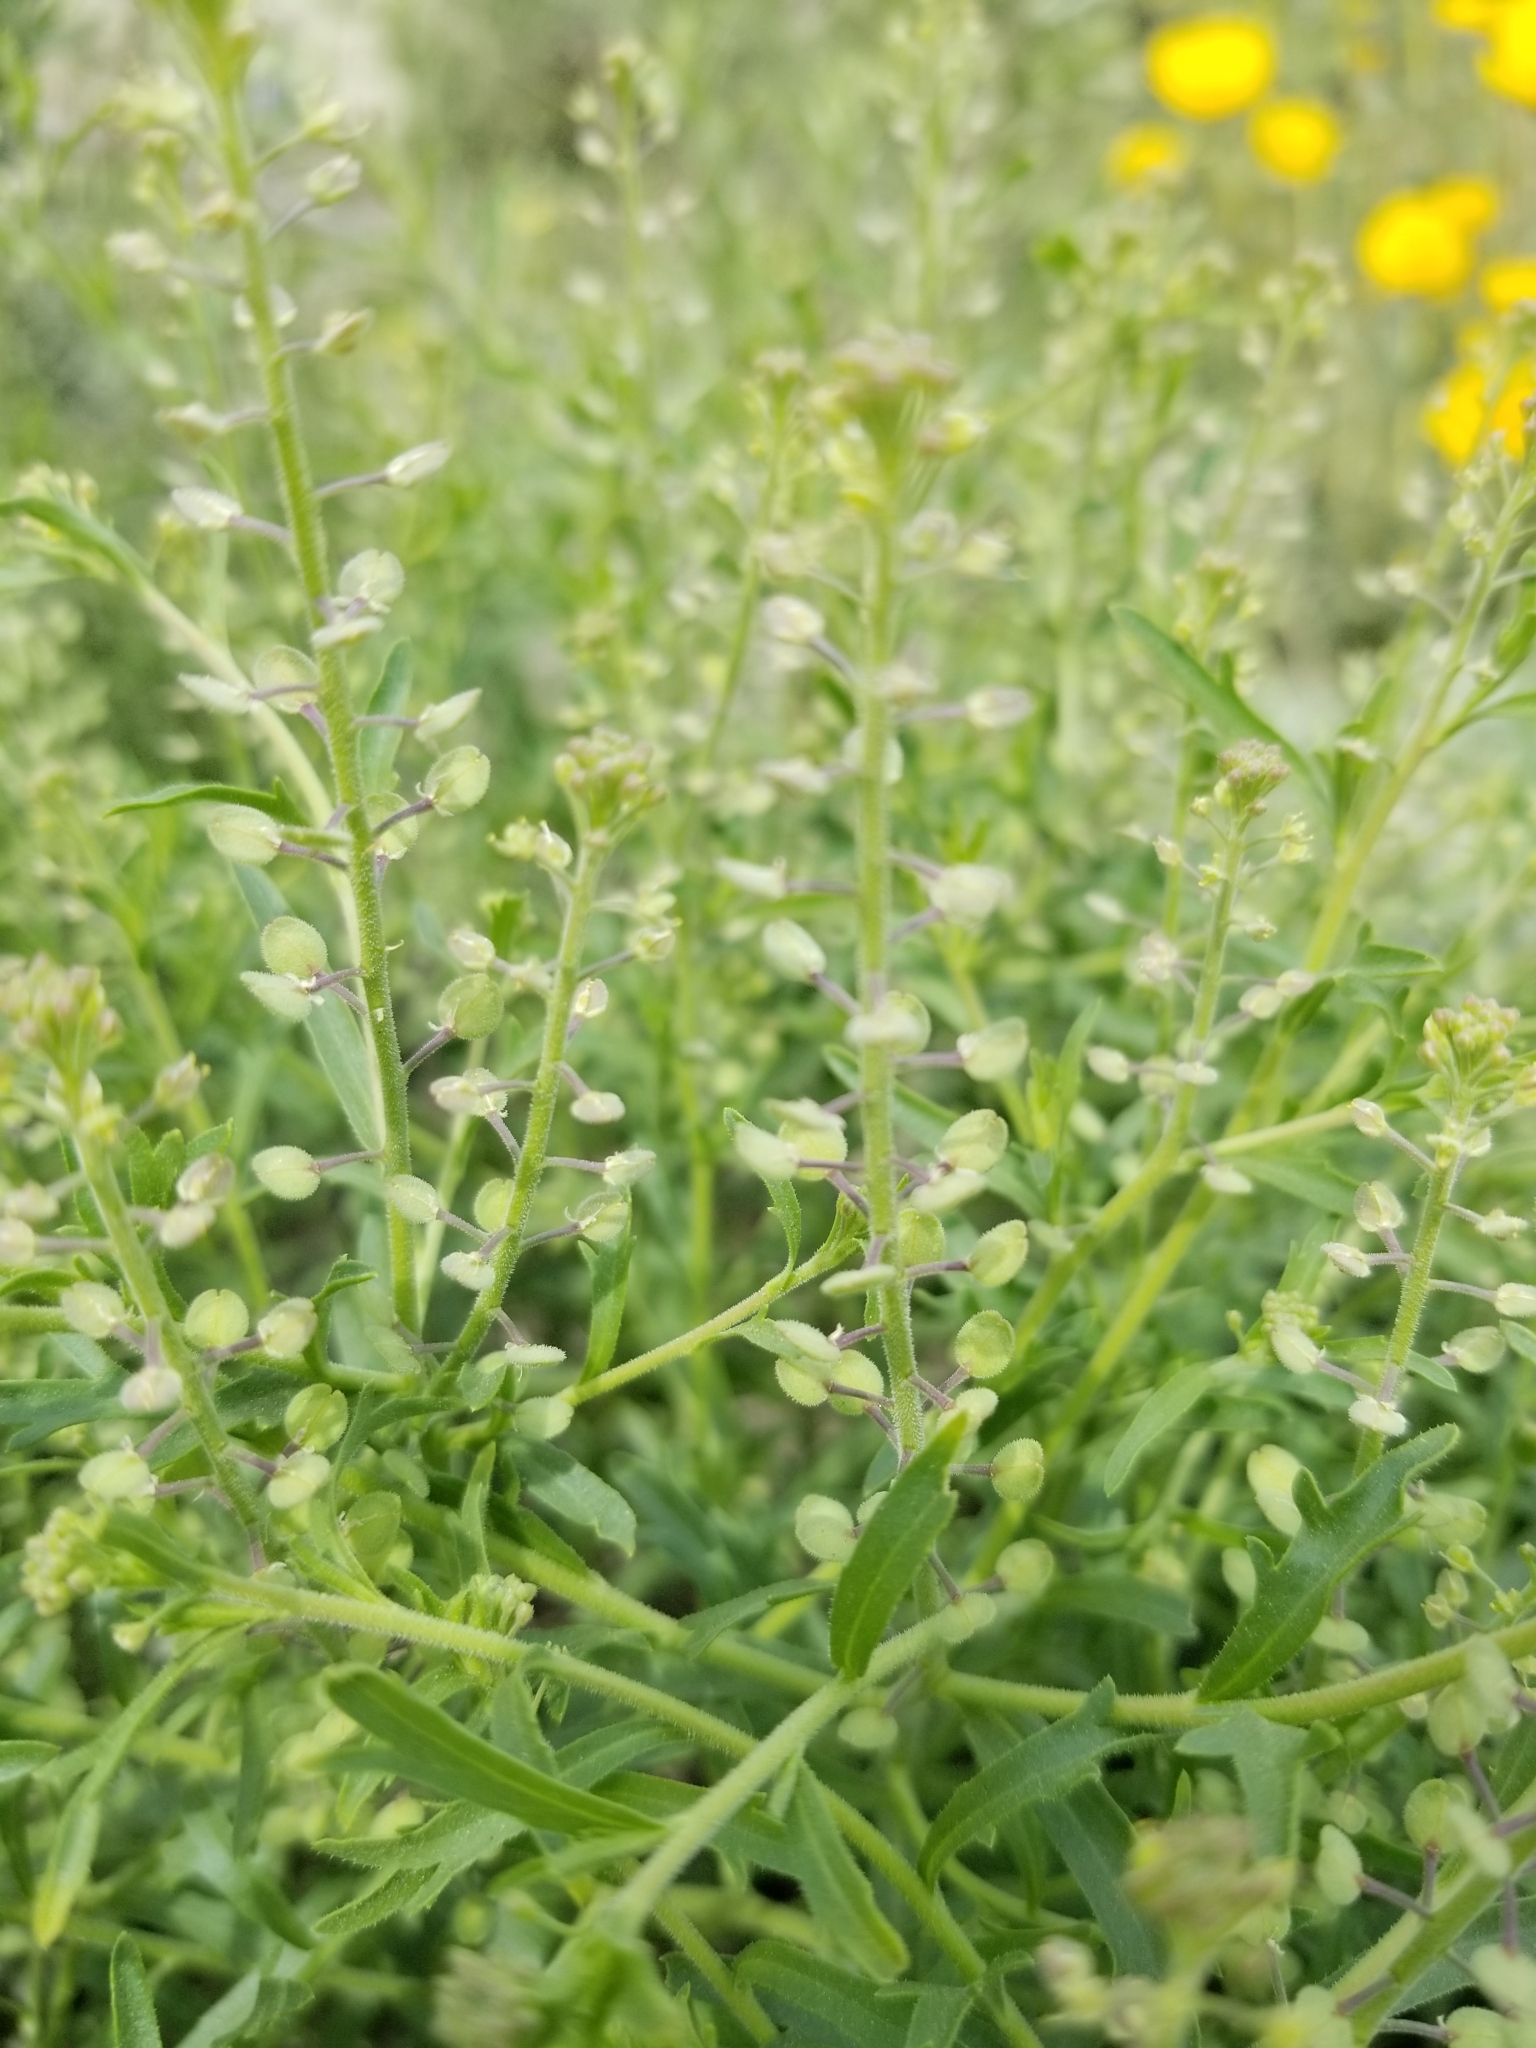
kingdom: Plantae
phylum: Tracheophyta
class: Magnoliopsida
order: Brassicales
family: Brassicaceae
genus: Lepidium
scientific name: Lepidium lasiocarpum
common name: Hairy-pod pepperwort
